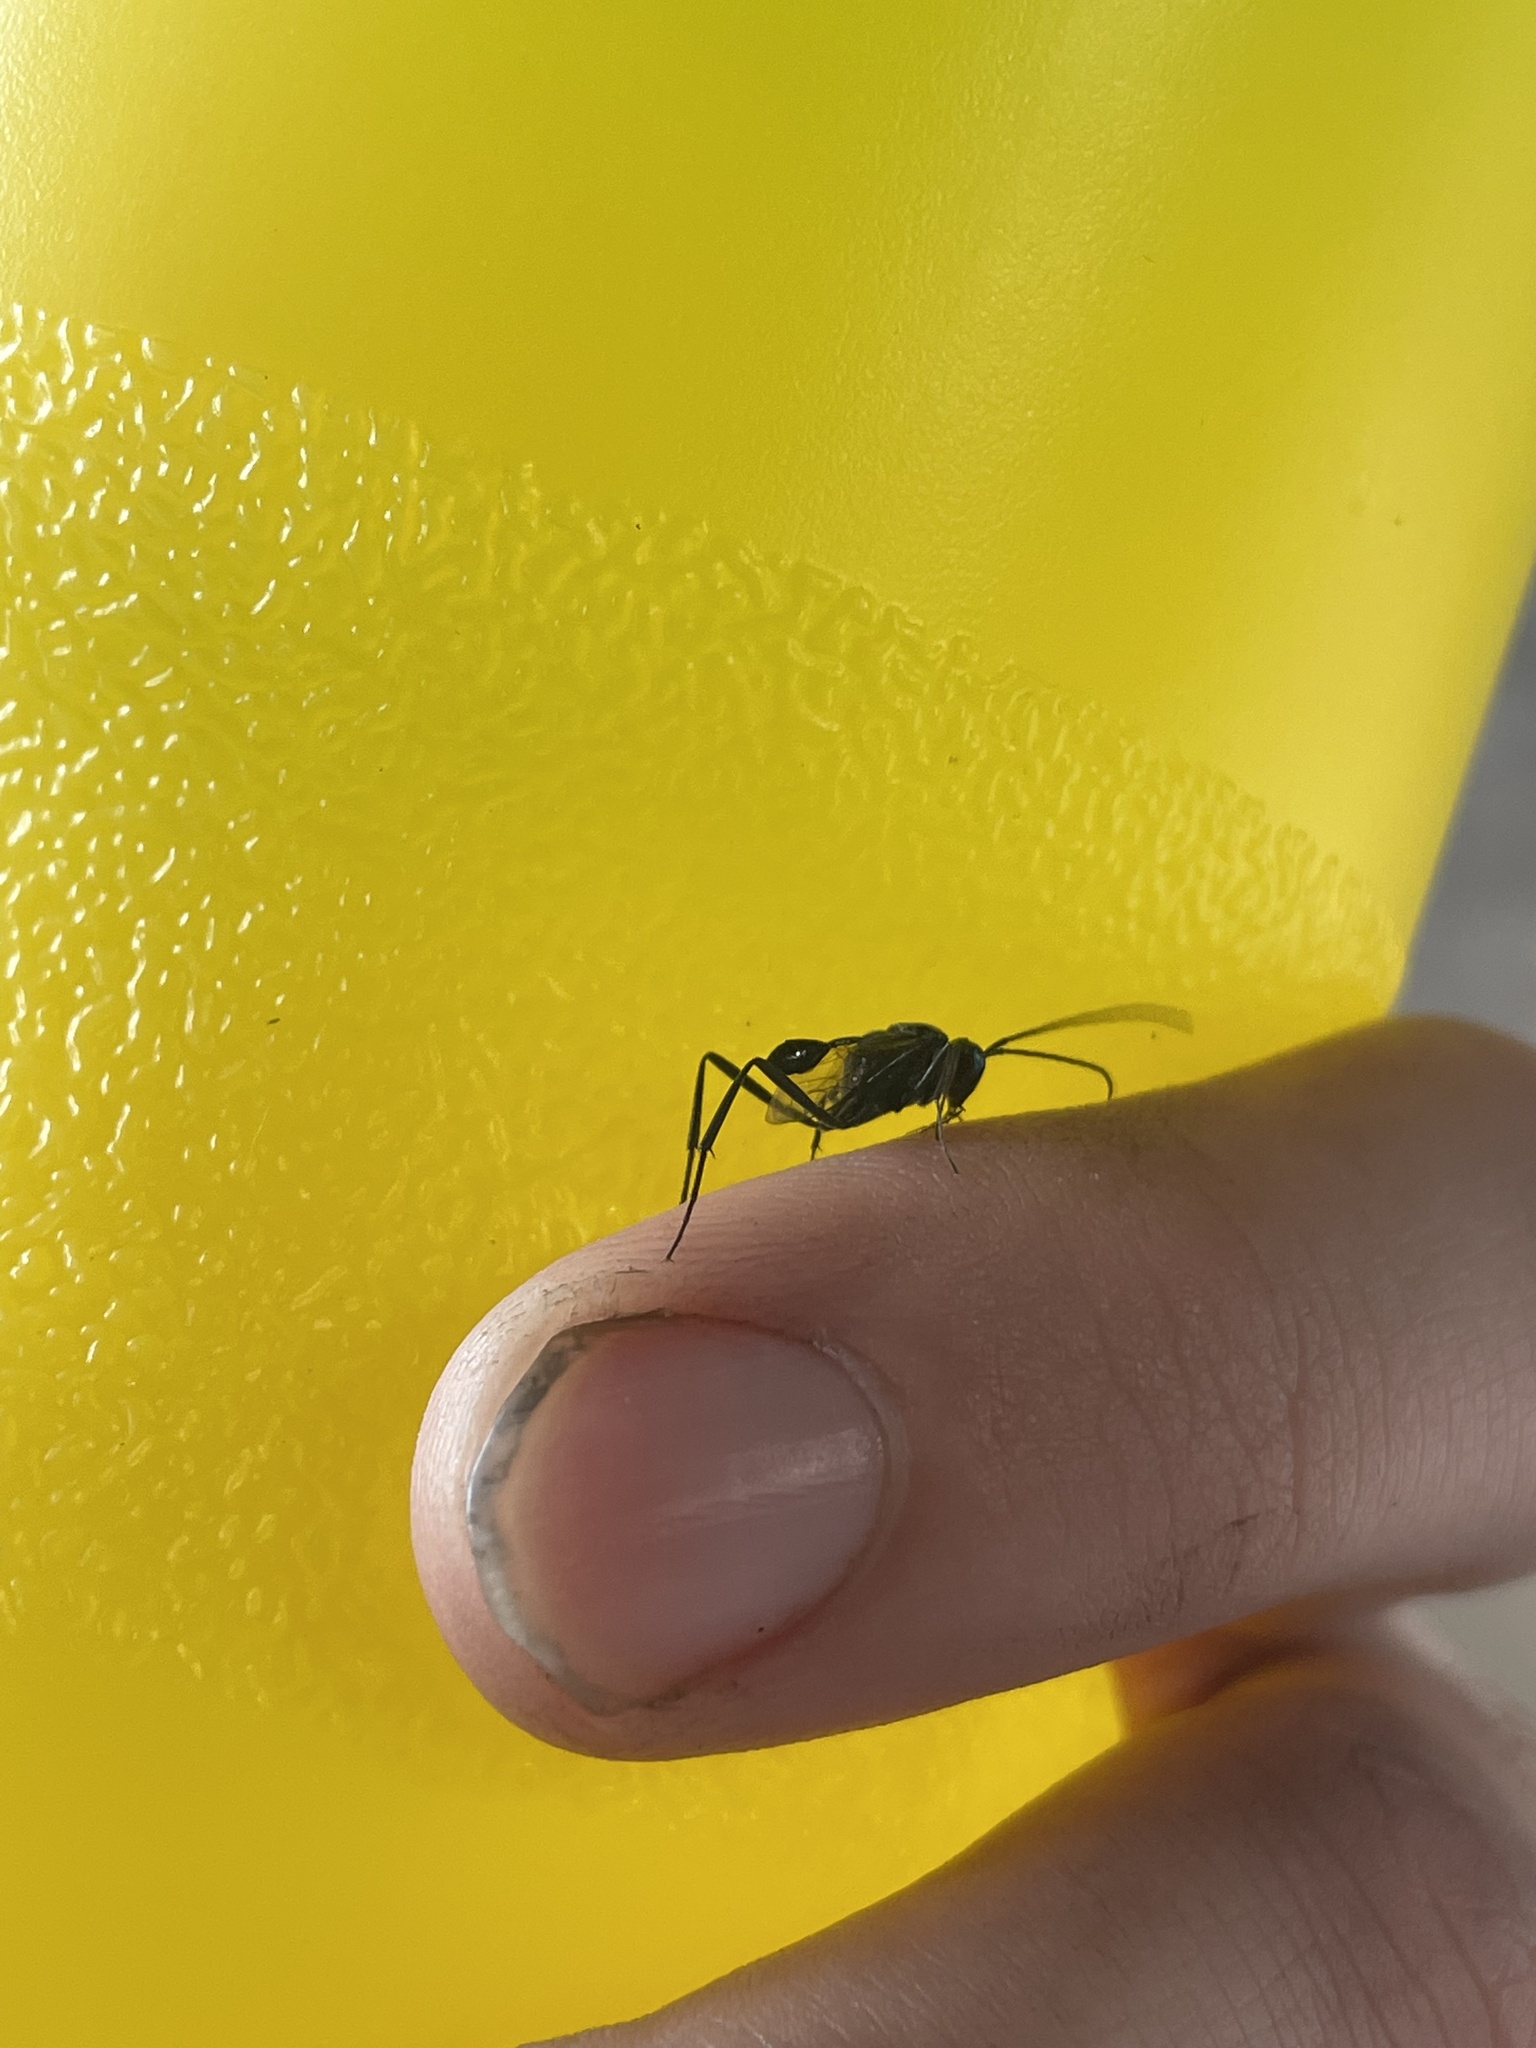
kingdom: Animalia
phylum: Arthropoda
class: Insecta
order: Hymenoptera
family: Evaniidae
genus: Evania
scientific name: Evania appendigaster
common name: Ensign wasp
